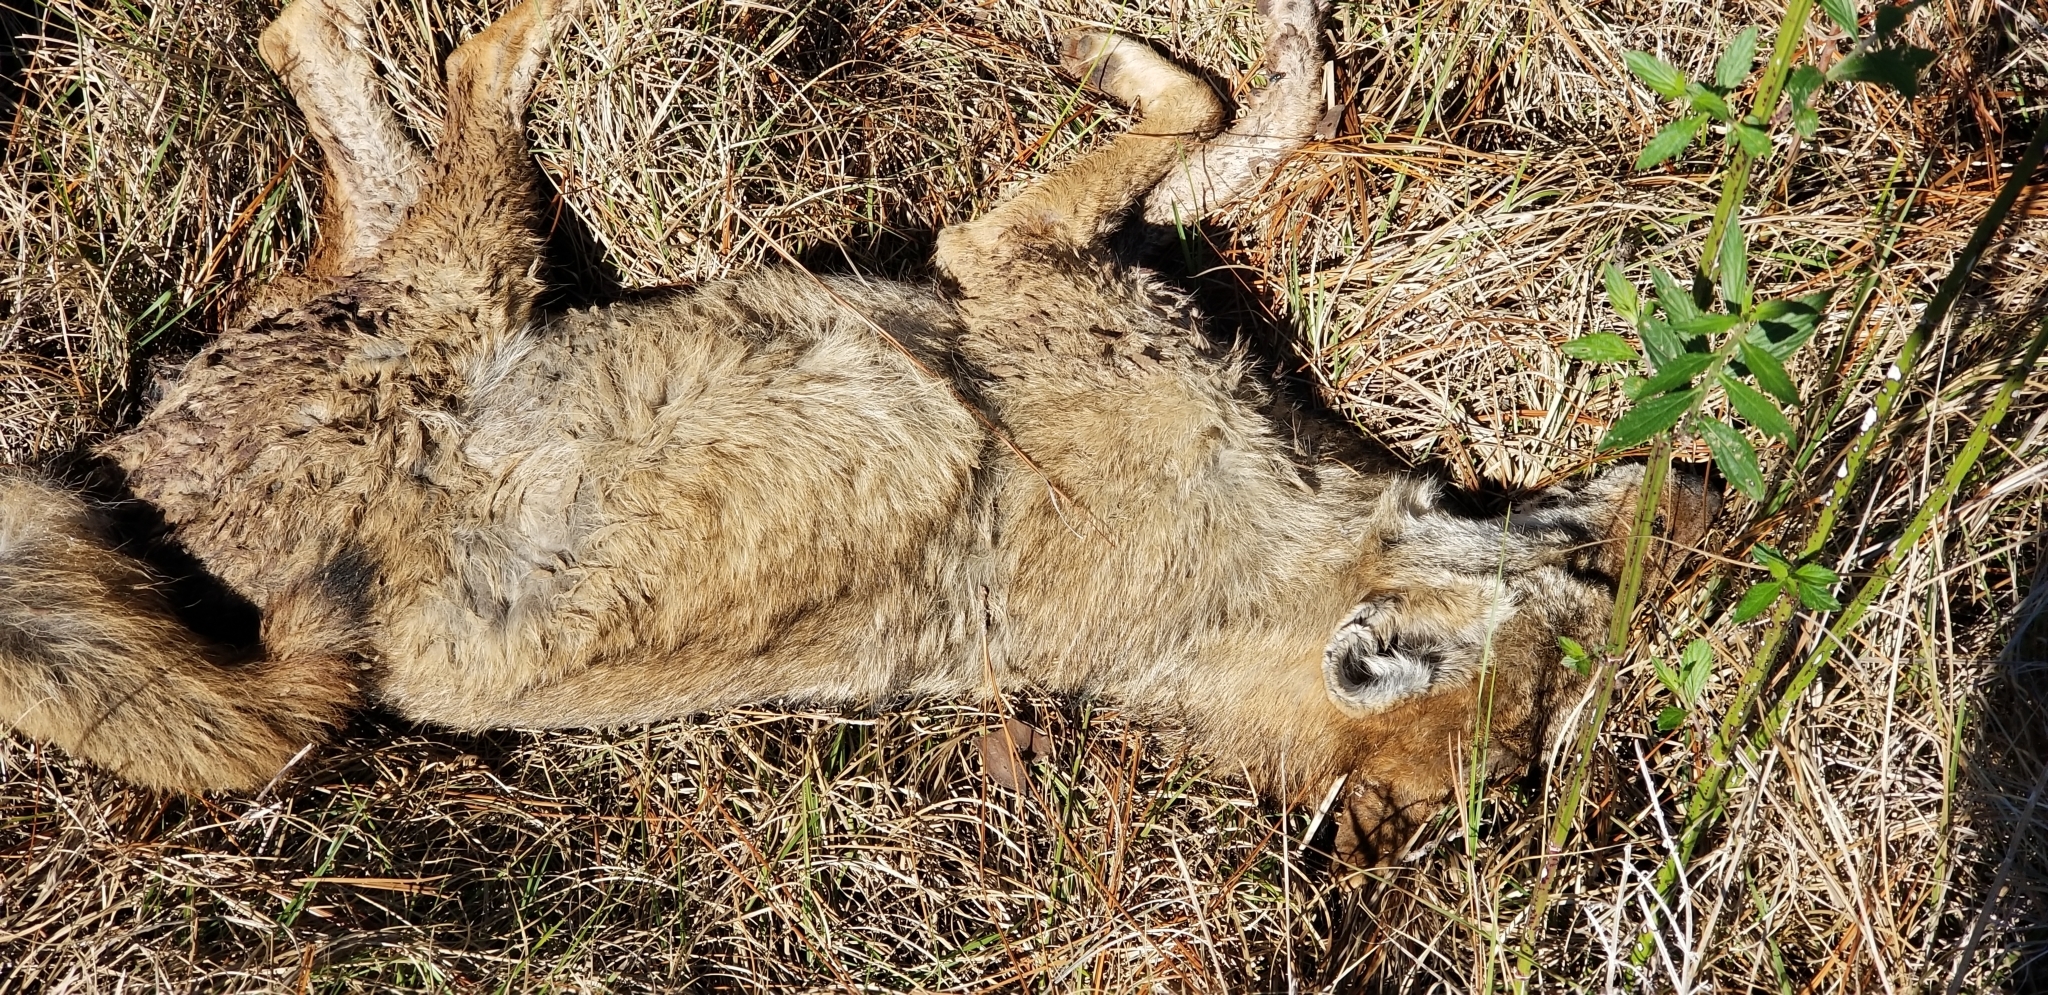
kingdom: Animalia
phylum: Chordata
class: Mammalia
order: Carnivora
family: Canidae
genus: Canis
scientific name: Canis latrans
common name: Coyote
